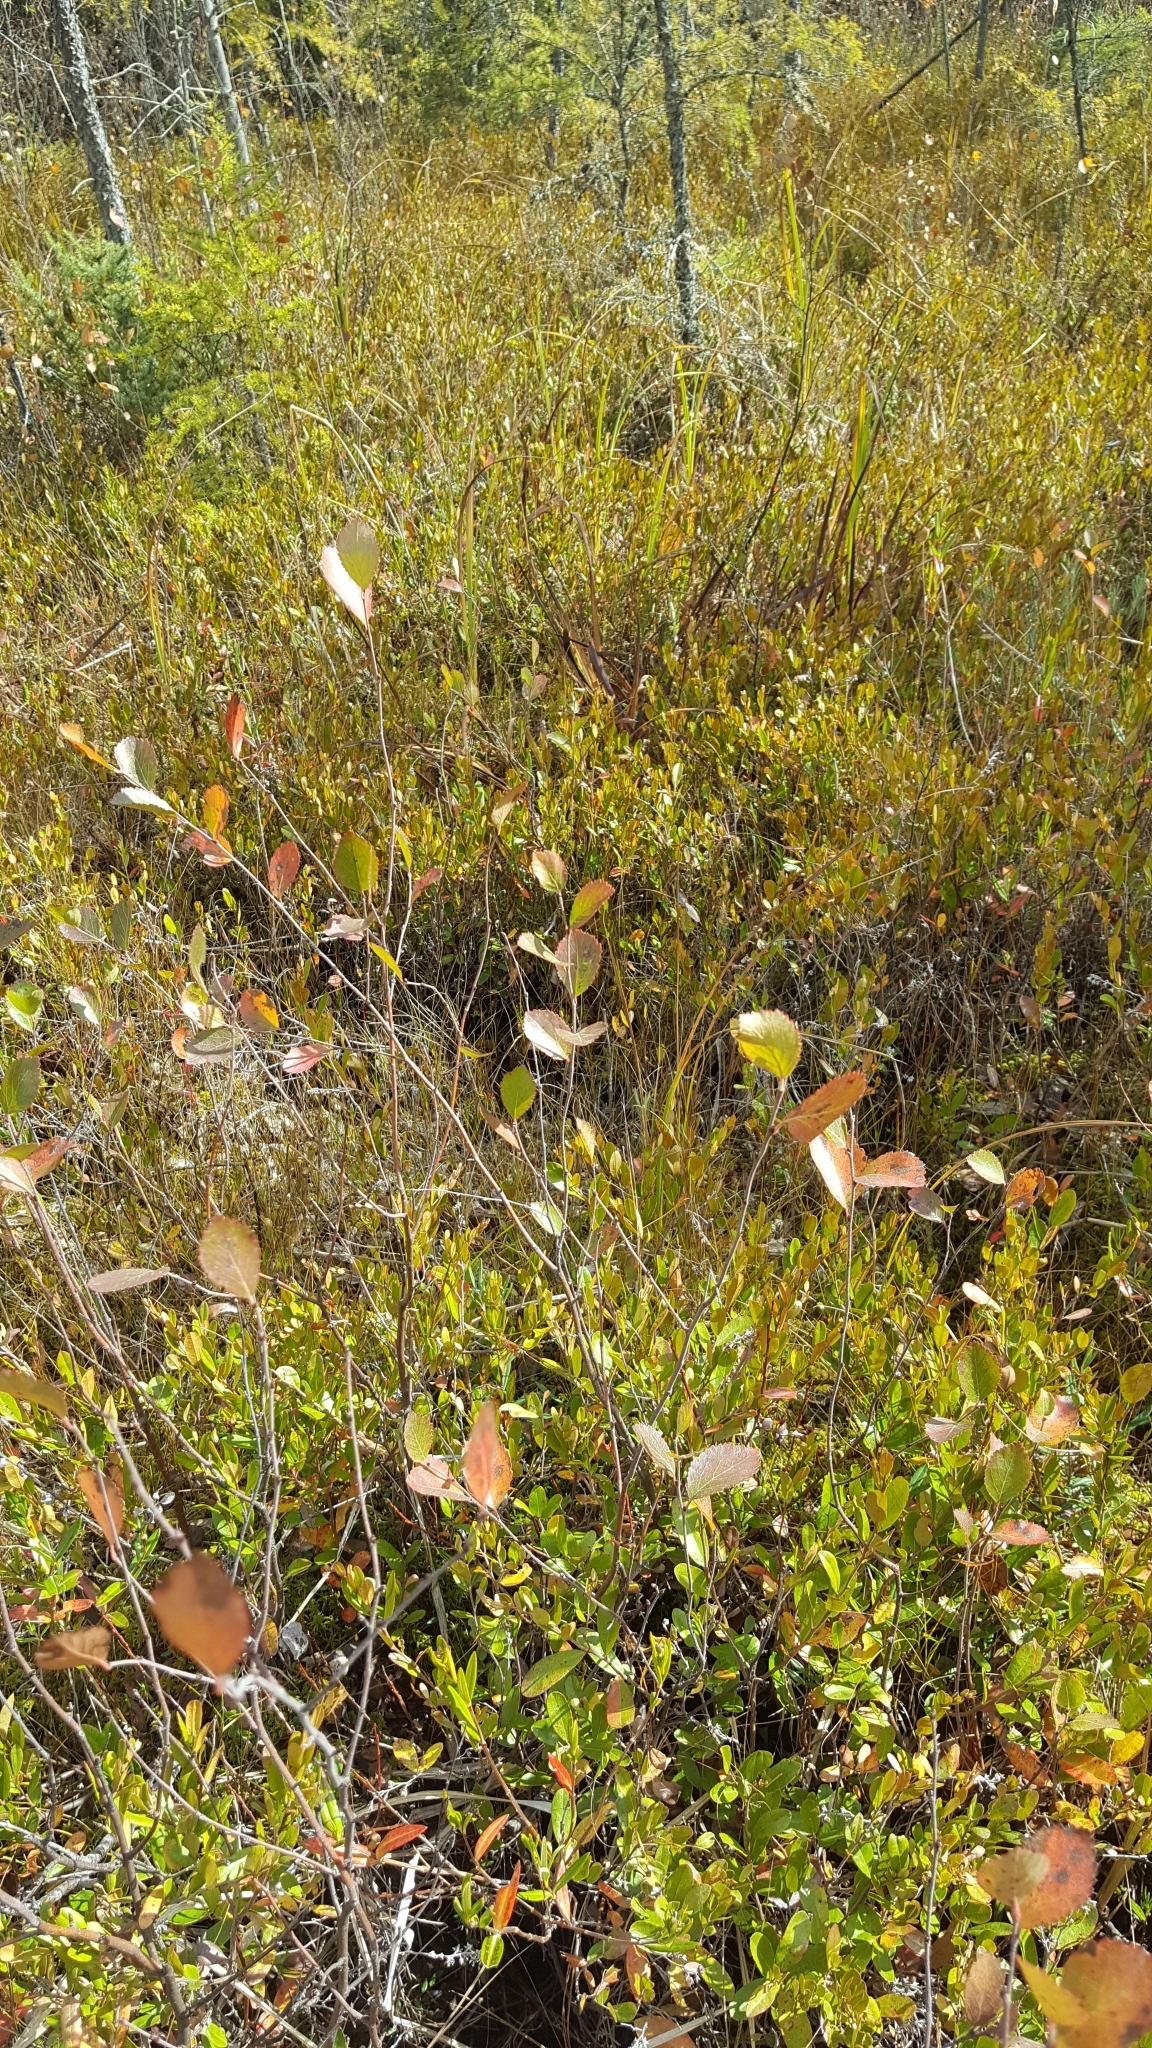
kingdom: Plantae
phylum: Tracheophyta
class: Magnoliopsida
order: Fagales
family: Betulaceae
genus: Betula
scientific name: Betula pumila
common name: Bog birch
